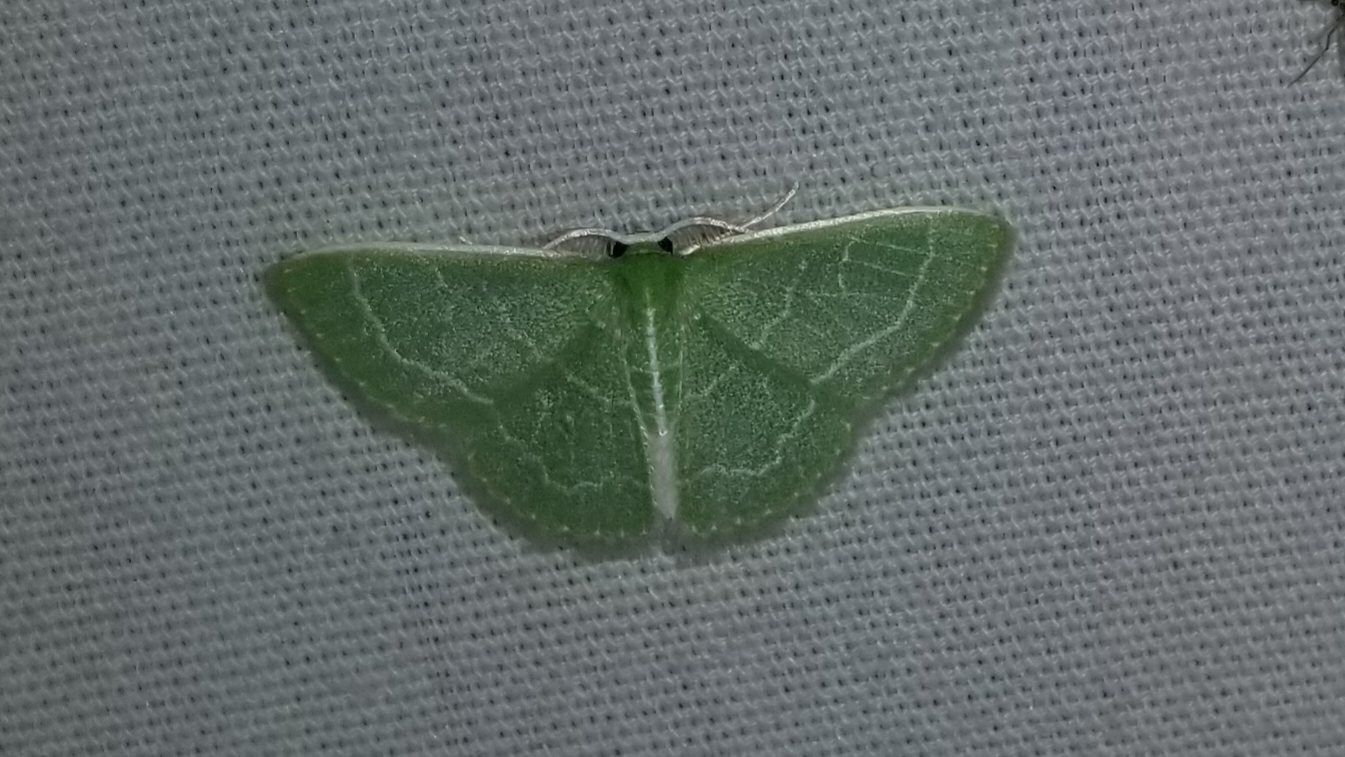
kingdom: Animalia
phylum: Arthropoda
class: Insecta
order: Lepidoptera
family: Geometridae
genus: Synchlora
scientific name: Synchlora aerata
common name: Wavy-lined emerald
